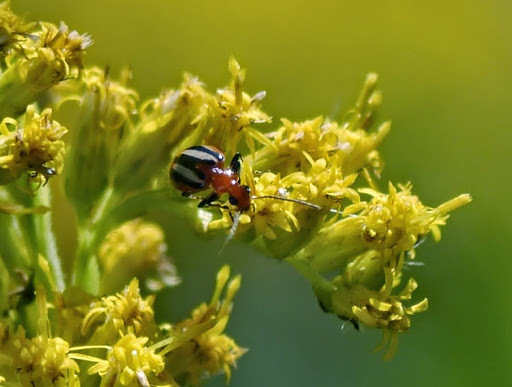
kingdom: Animalia
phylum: Arthropoda
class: Insecta
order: Coleoptera
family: Carabidae
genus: Lebia
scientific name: Lebia vittata
